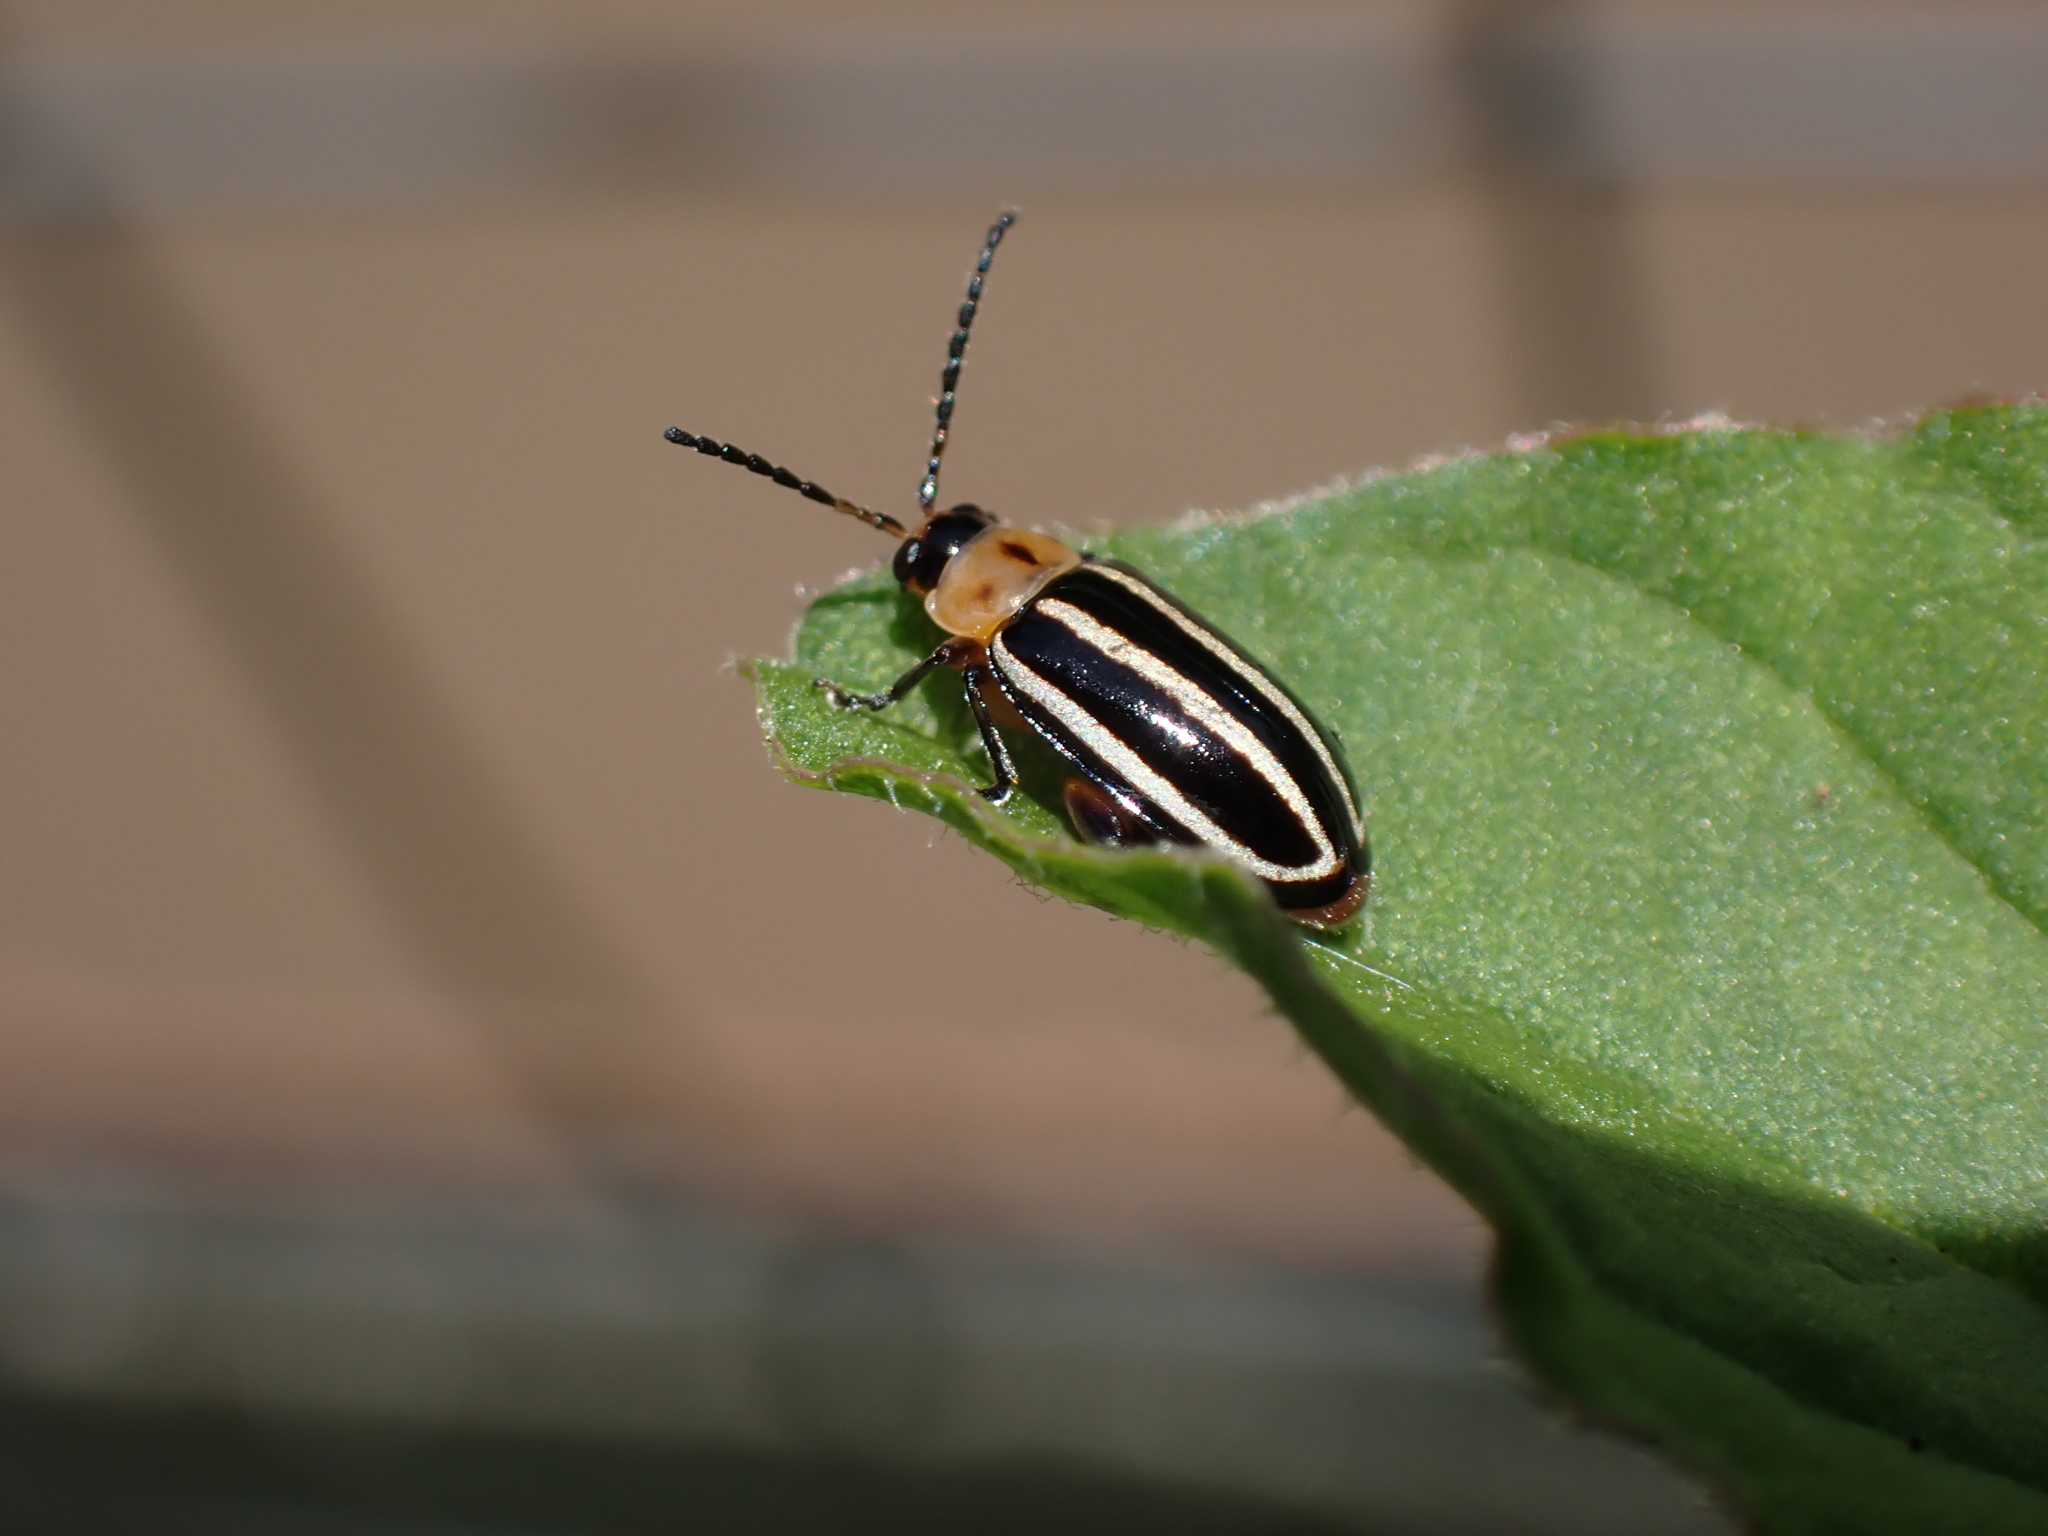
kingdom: Animalia
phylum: Arthropoda
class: Insecta
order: Coleoptera
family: Chrysomelidae
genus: Disonycha
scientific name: Disonycha glabrata
